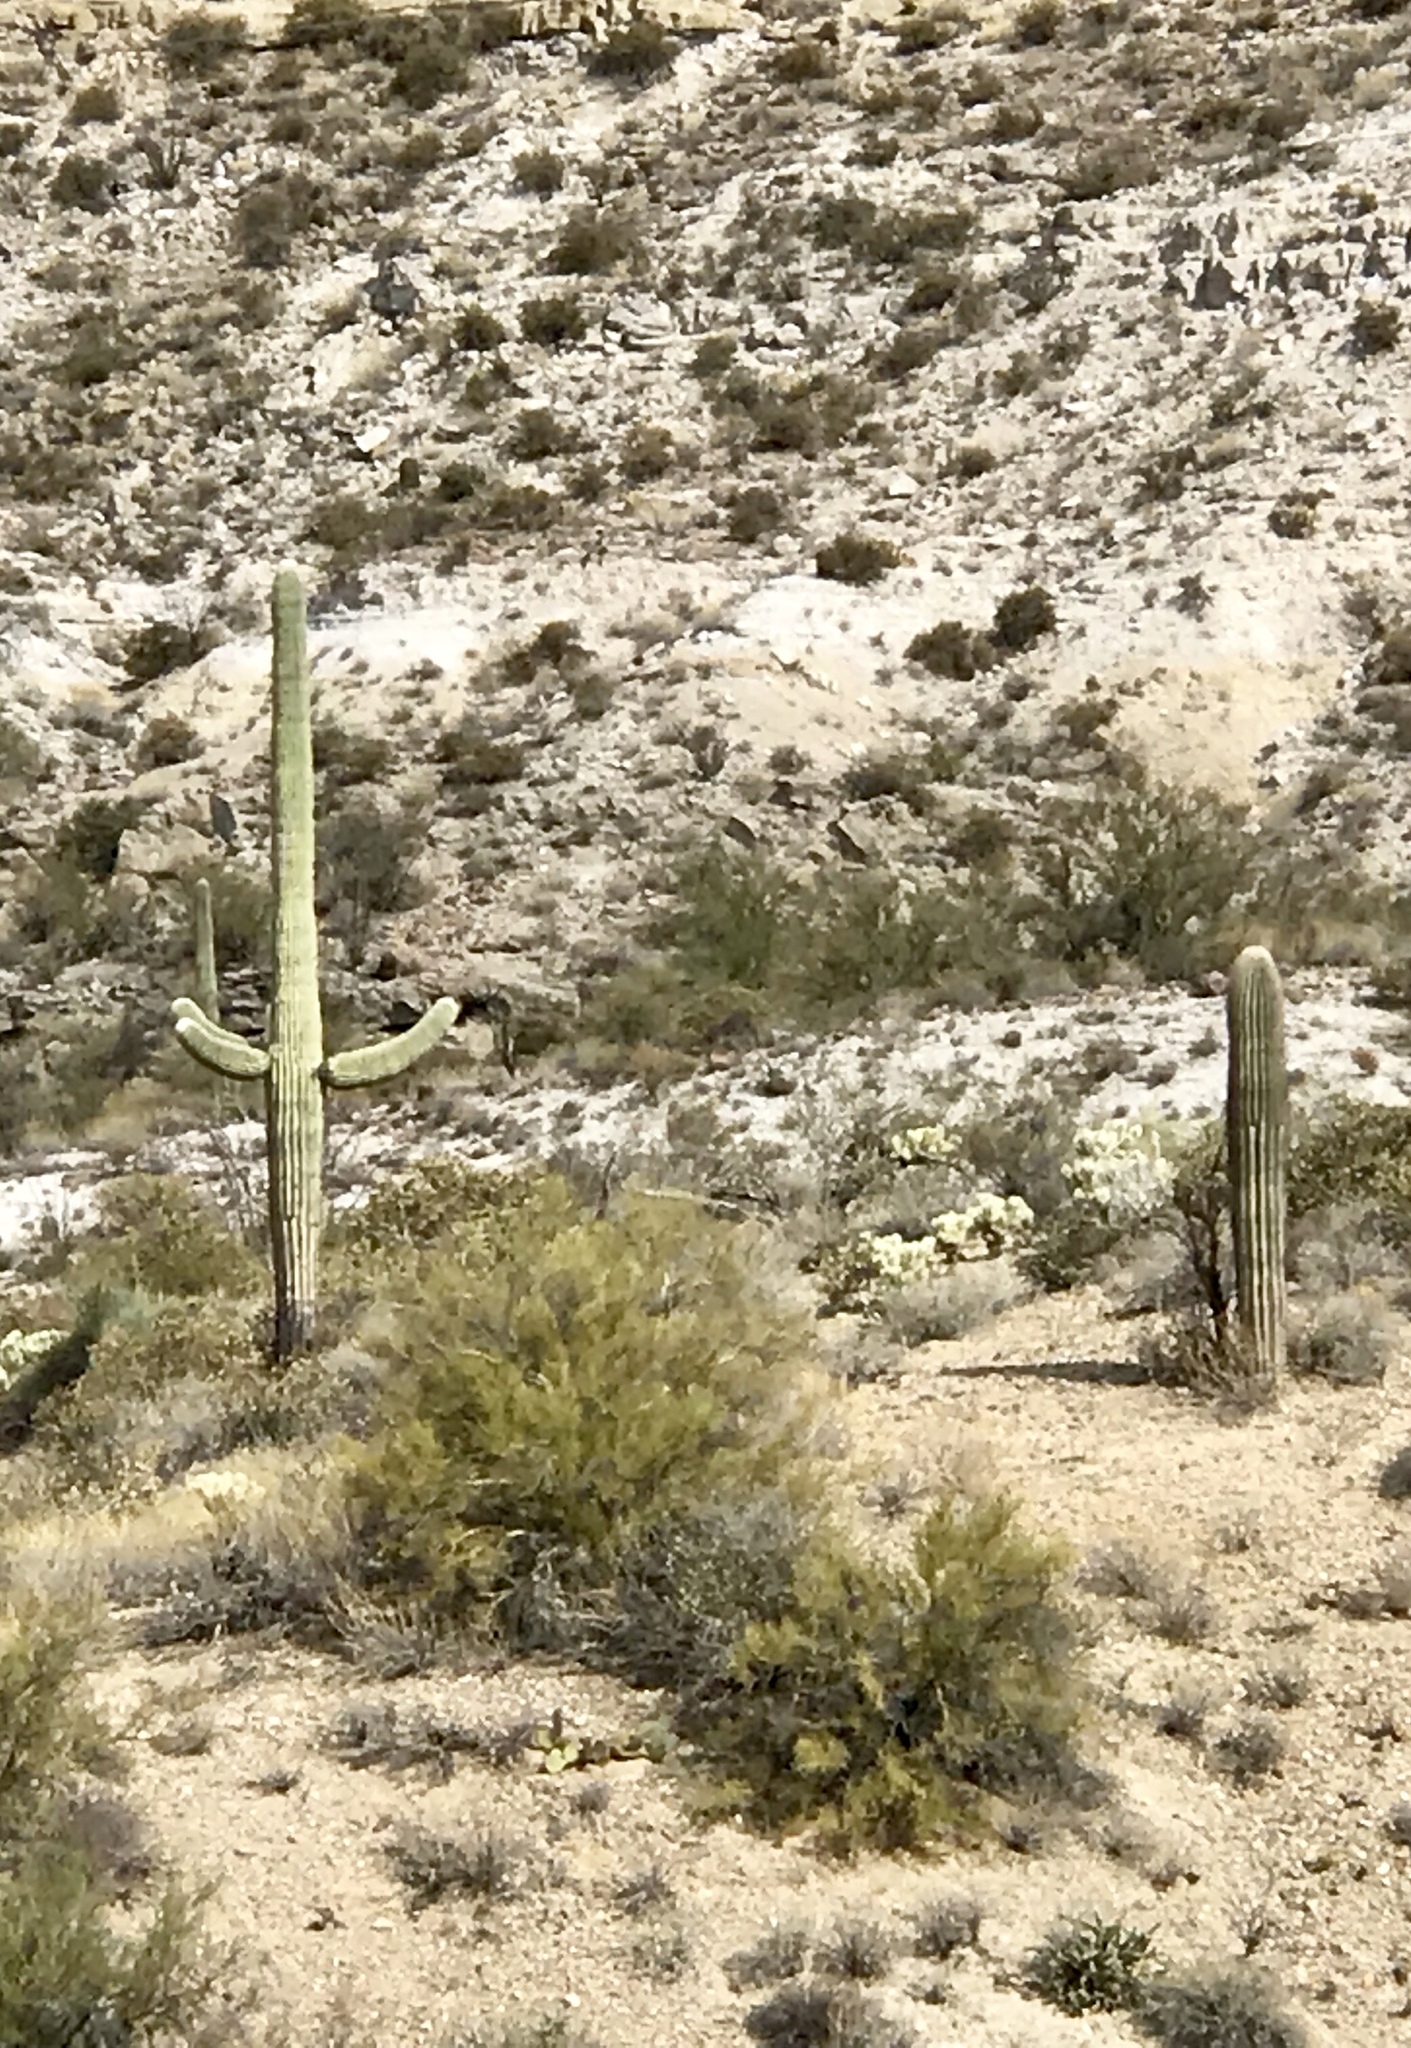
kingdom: Plantae
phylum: Tracheophyta
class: Magnoliopsida
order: Caryophyllales
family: Cactaceae
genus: Carnegiea
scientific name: Carnegiea gigantea
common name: Saguaro
